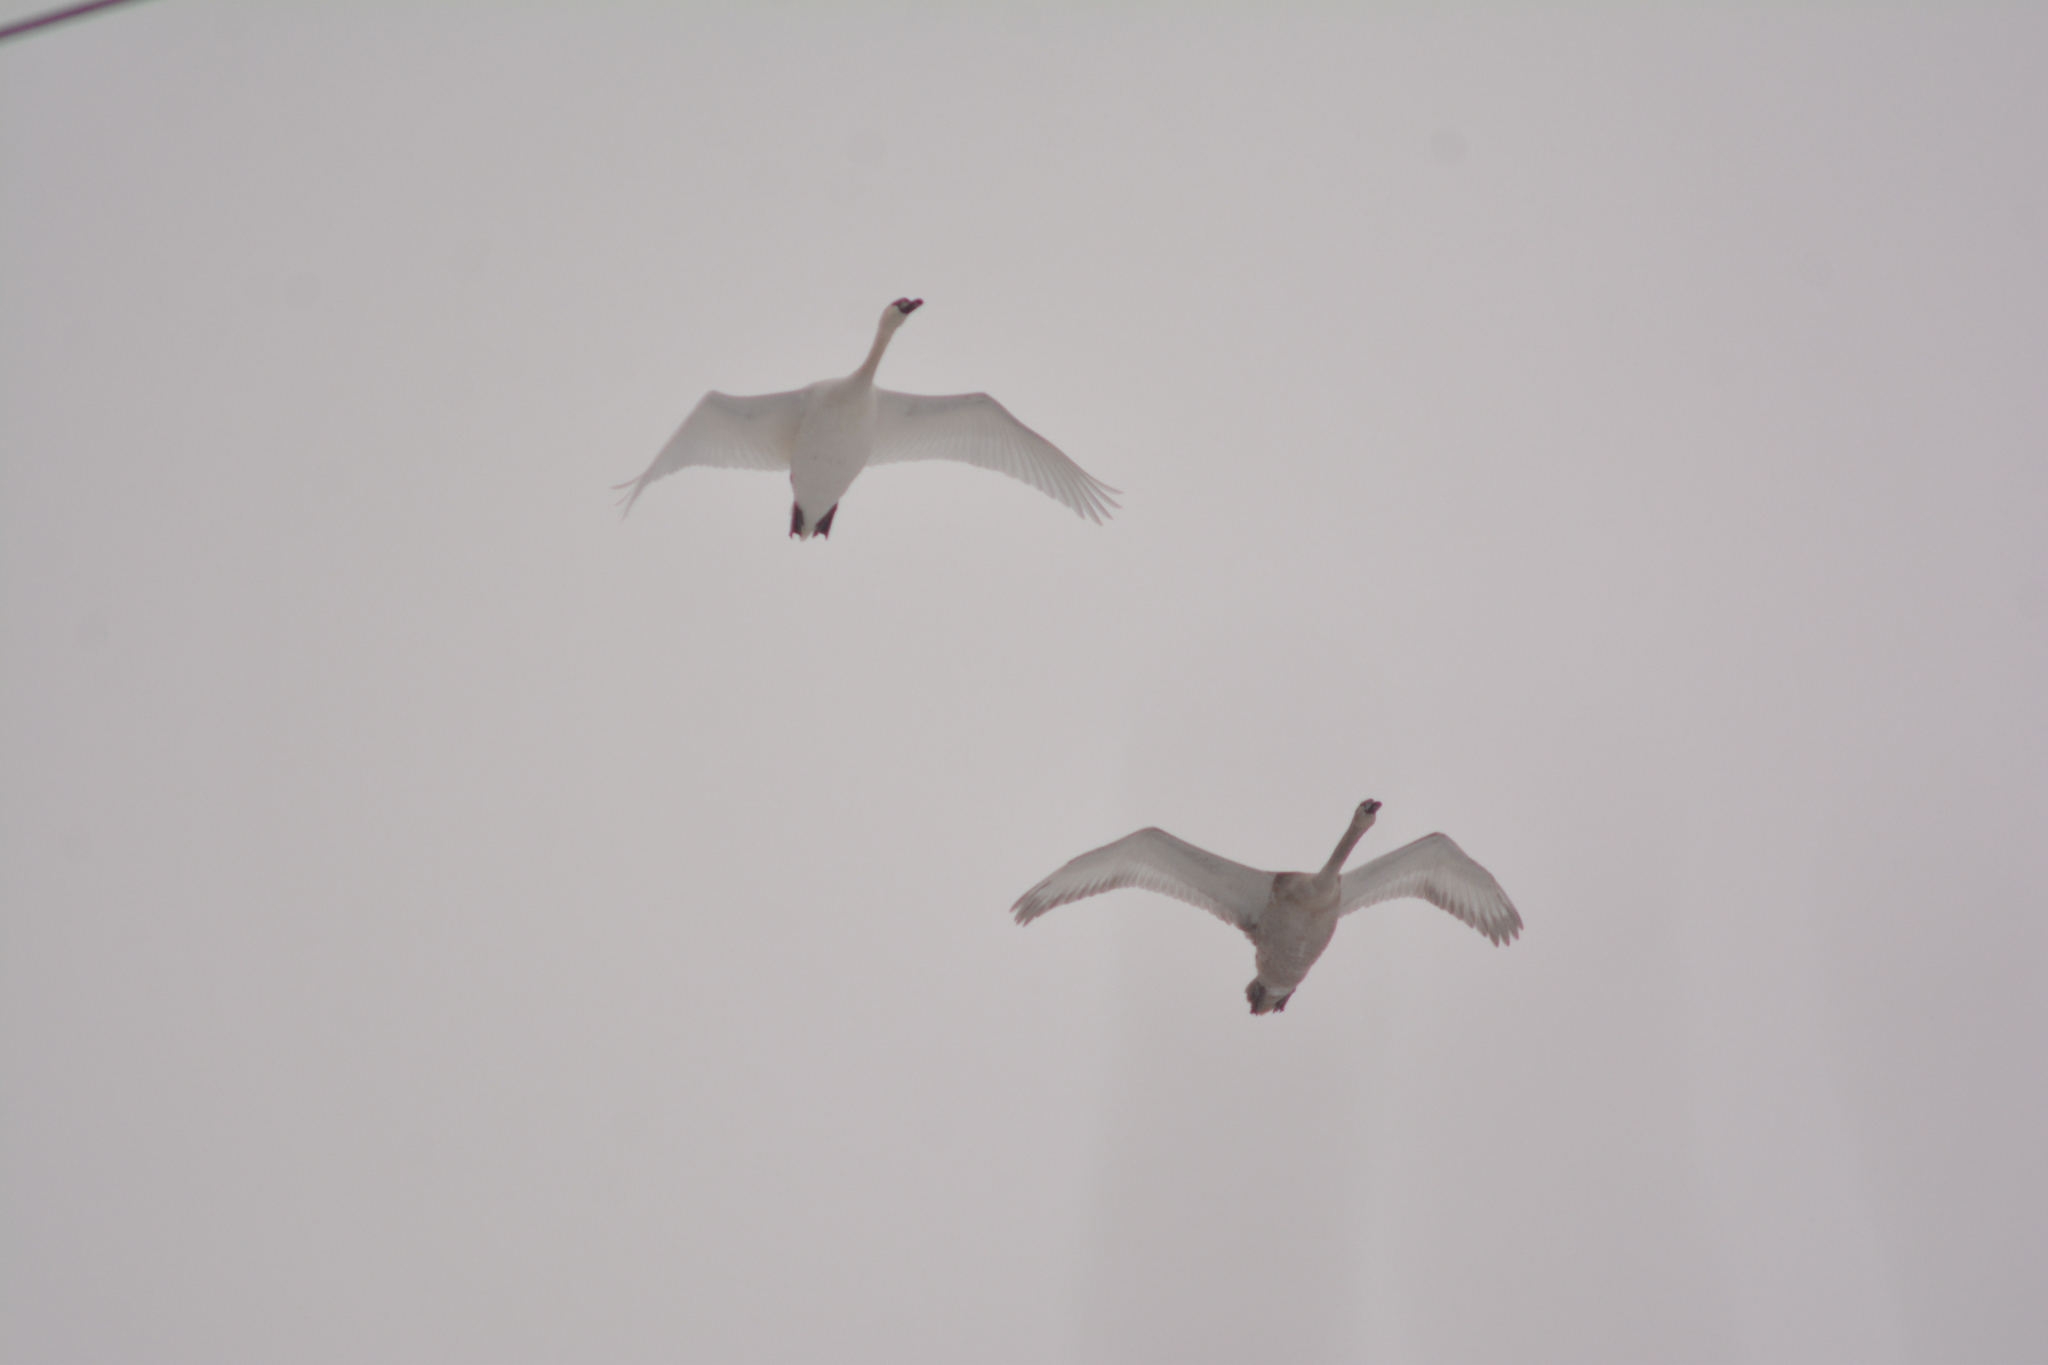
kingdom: Animalia
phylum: Chordata
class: Aves
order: Anseriformes
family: Anatidae
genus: Cygnus
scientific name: Cygnus olor
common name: Mute swan
